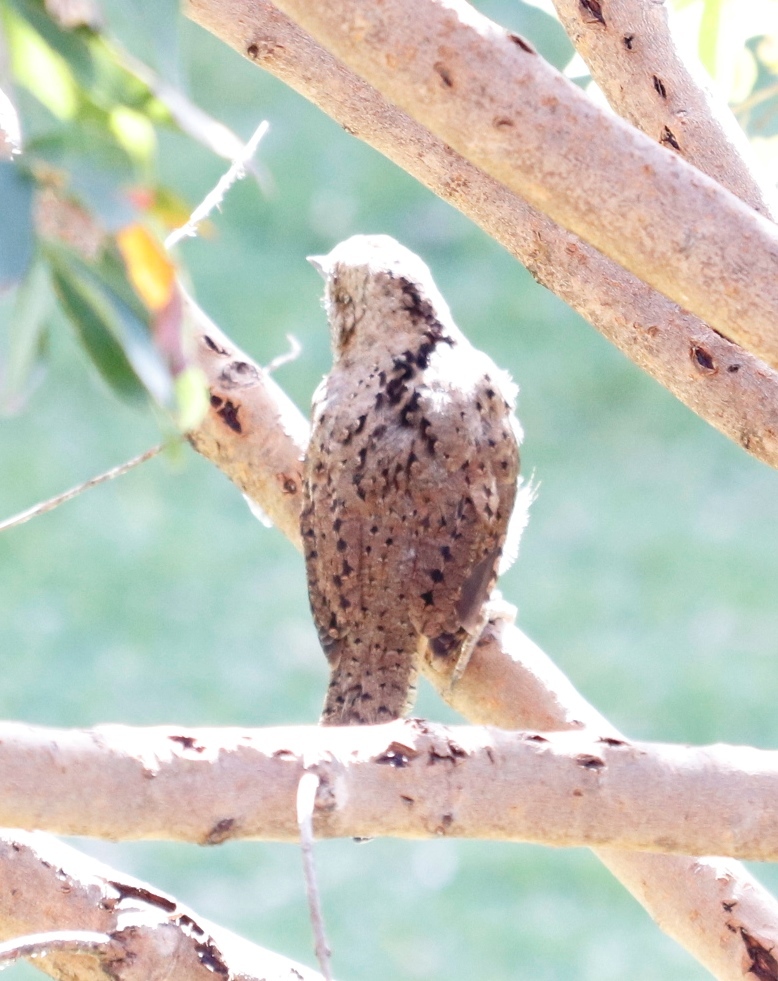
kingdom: Animalia
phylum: Chordata
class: Aves
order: Piciformes
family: Picidae
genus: Jynx
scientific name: Jynx ruficollis
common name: Red-throated wryneck
